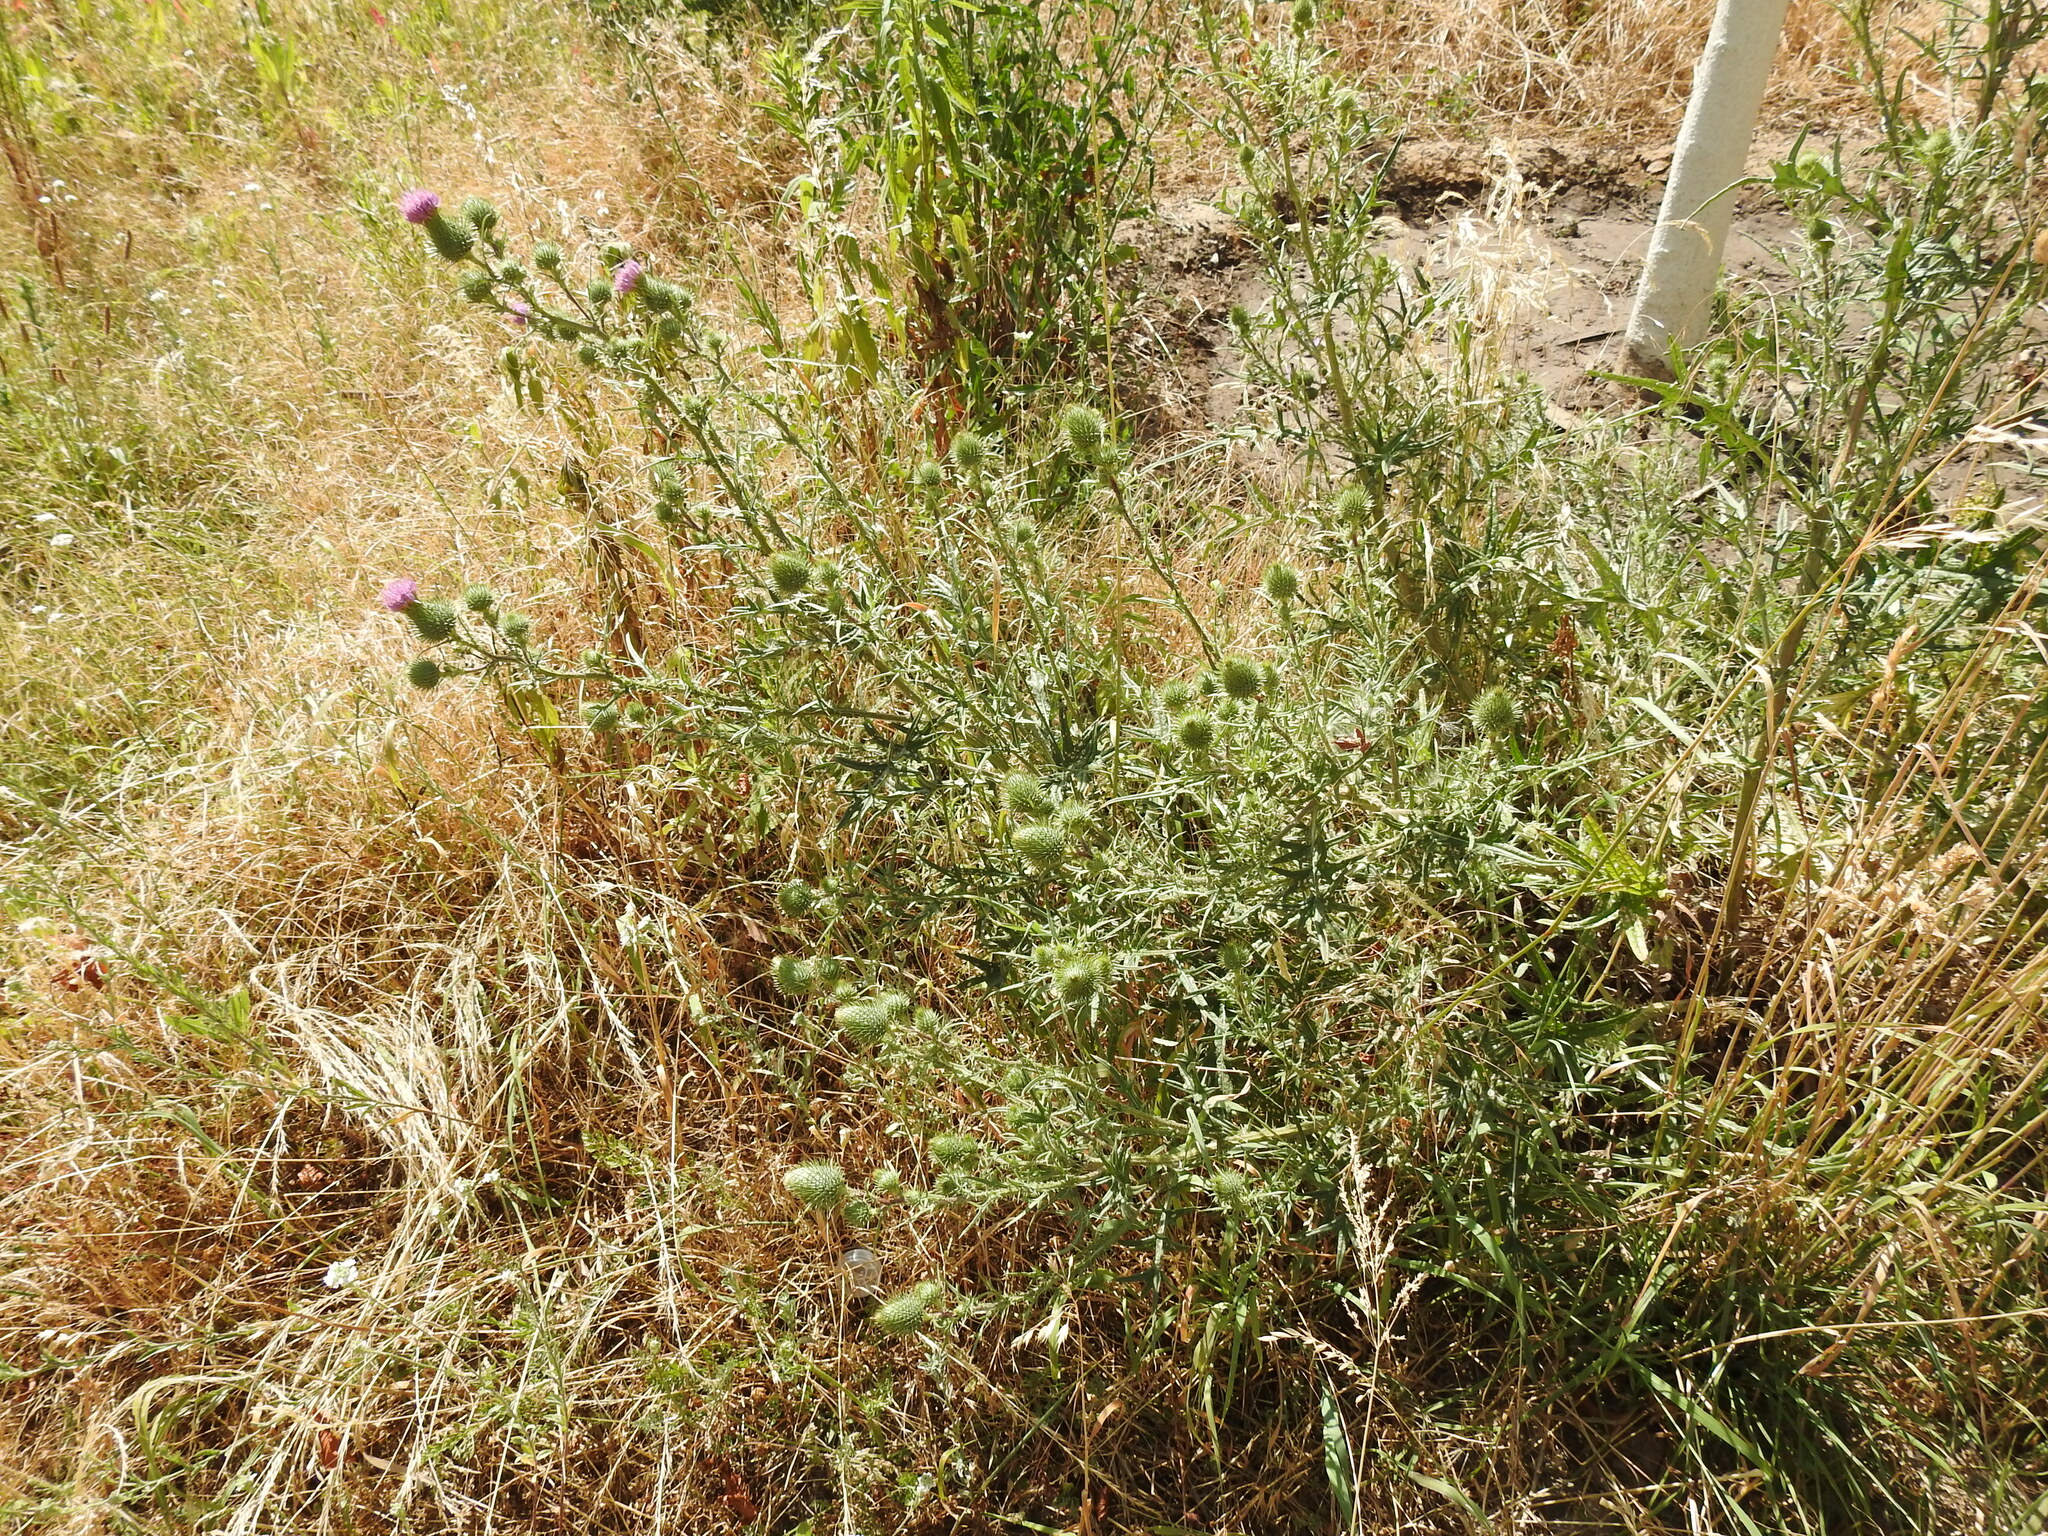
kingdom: Plantae
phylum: Tracheophyta
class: Magnoliopsida
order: Asterales
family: Asteraceae
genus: Cirsium
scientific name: Cirsium vulgare
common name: Bull thistle
